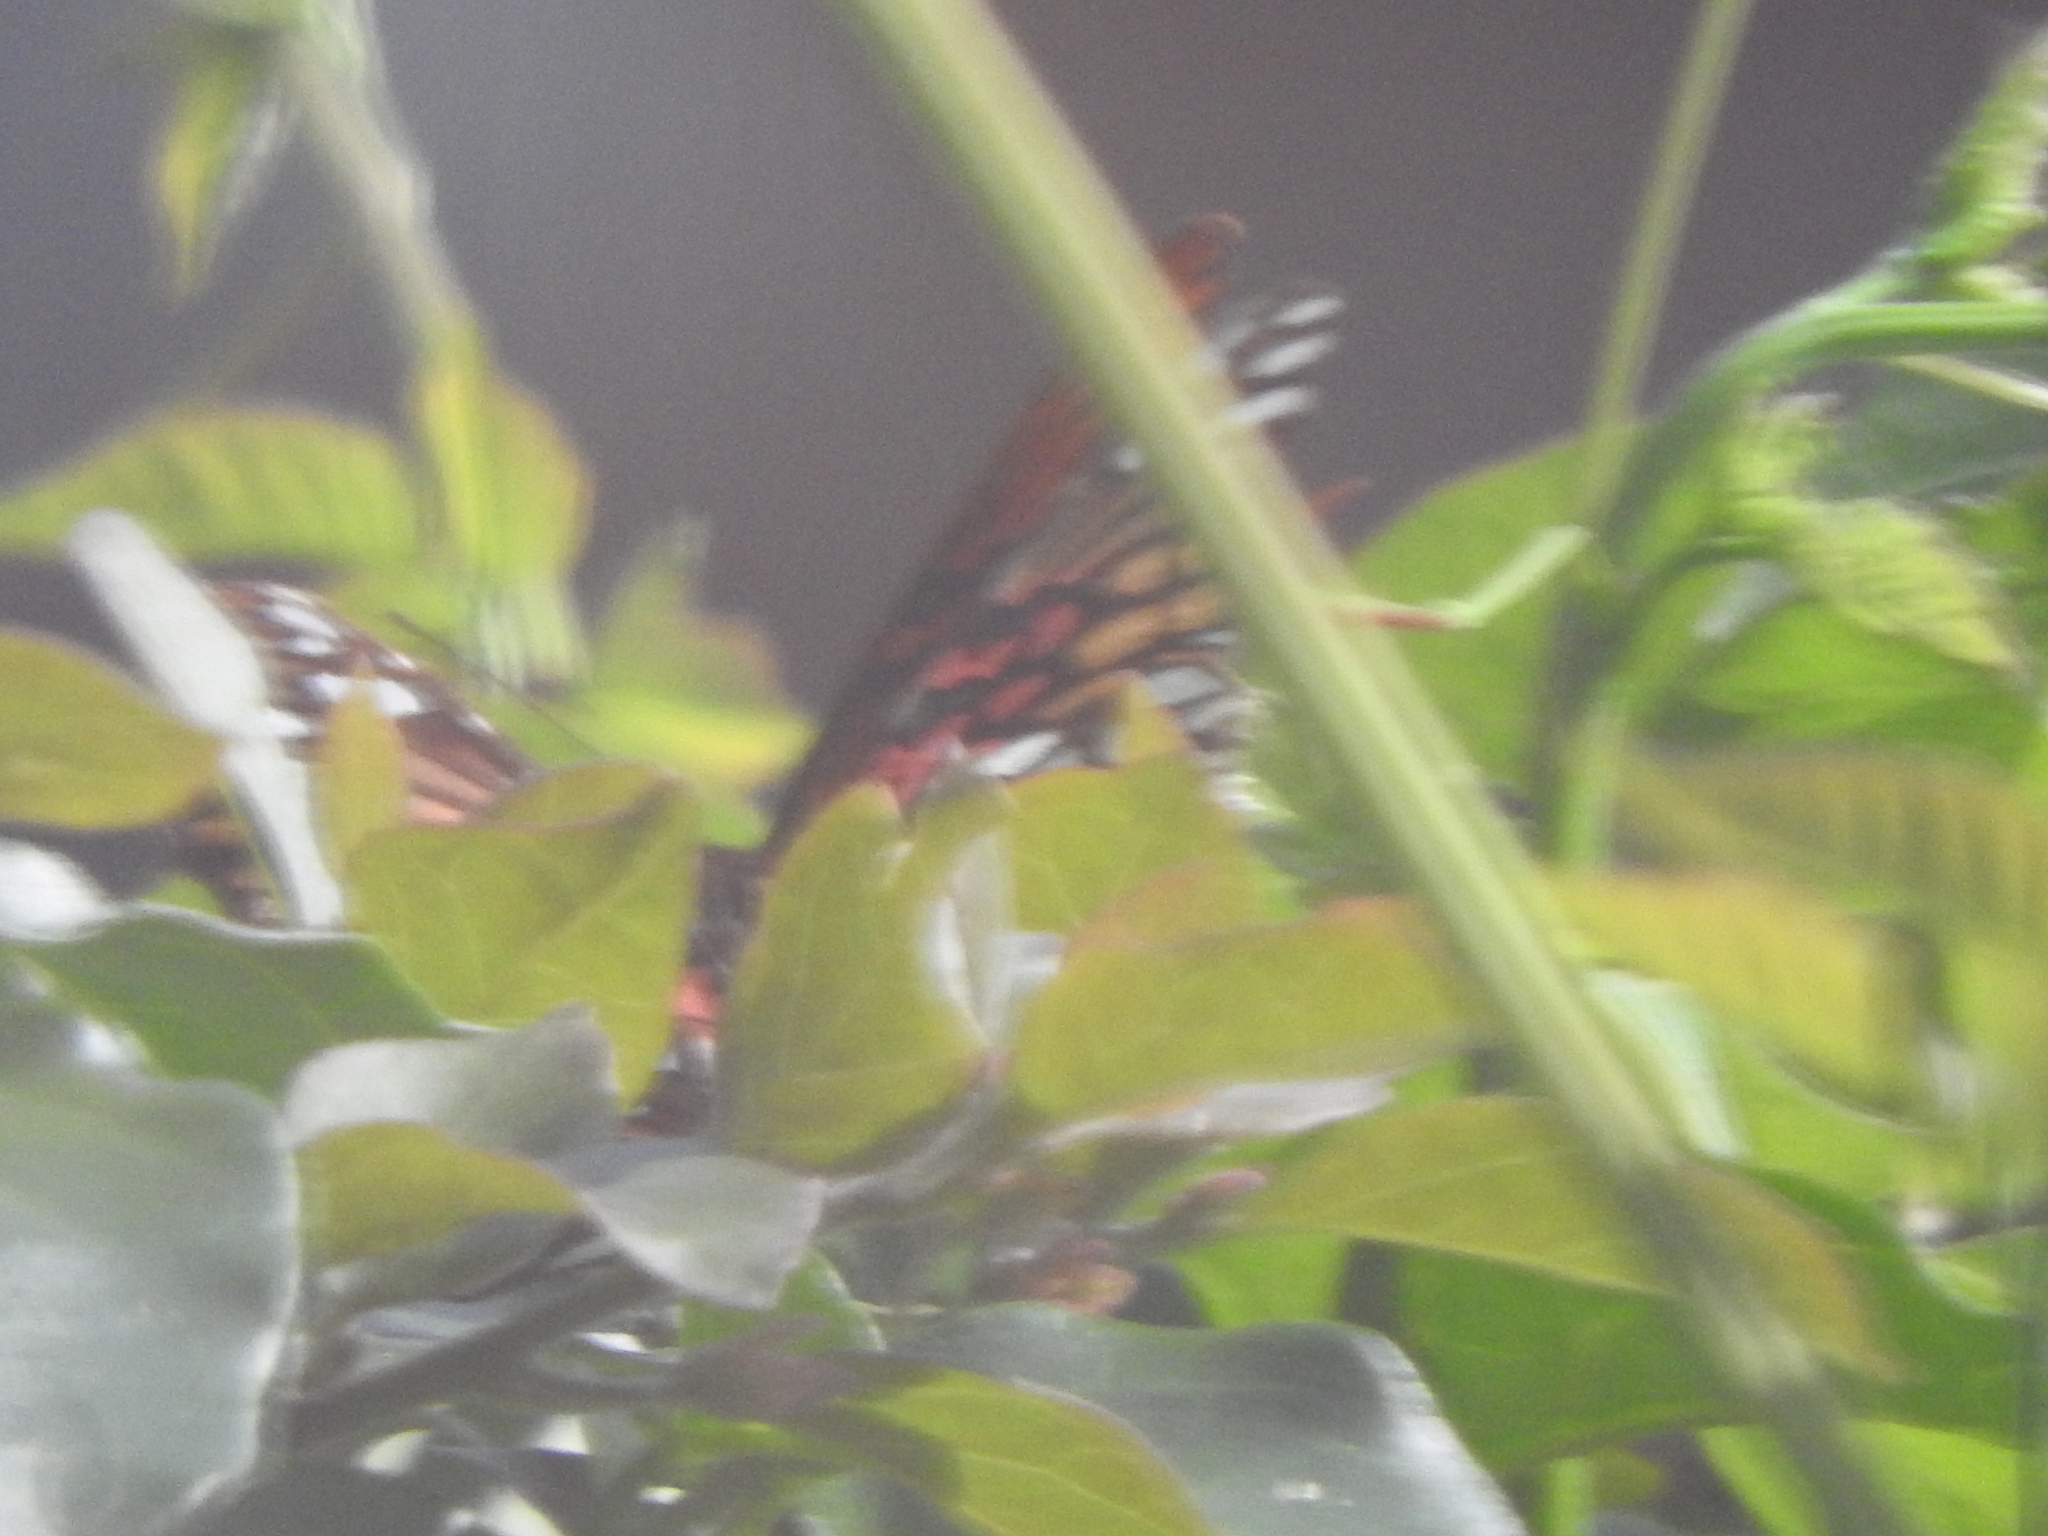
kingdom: Animalia
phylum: Arthropoda
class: Insecta
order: Lepidoptera
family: Nymphalidae
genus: Dione
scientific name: Dione moneta
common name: Mexican silverspot
